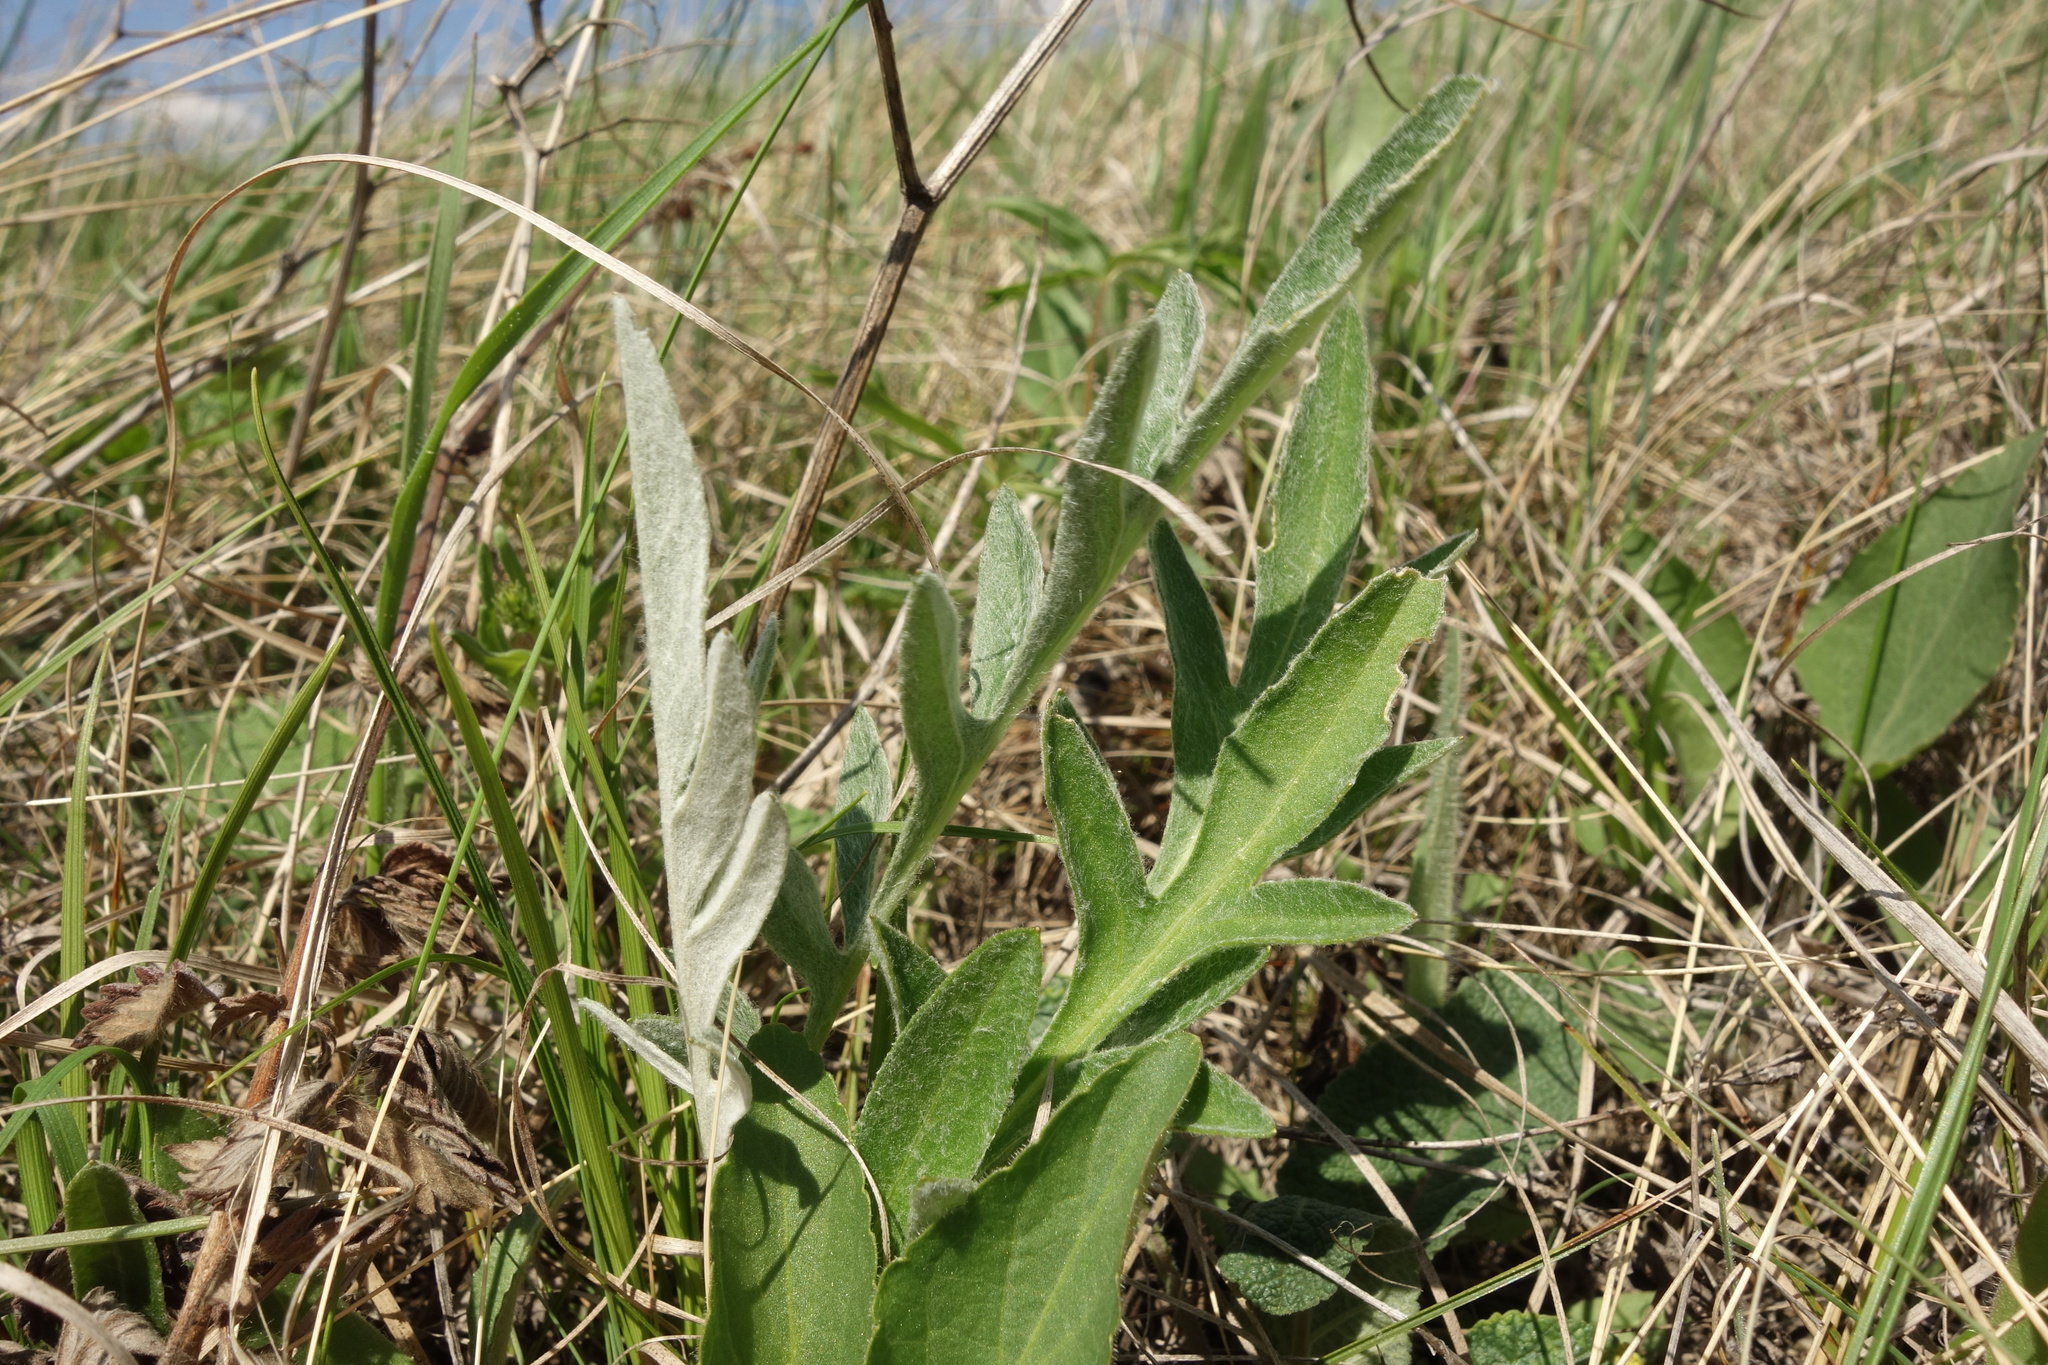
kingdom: Plantae
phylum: Tracheophyta
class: Magnoliopsida
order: Asterales
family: Asteraceae
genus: Psephellus
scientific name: Psephellus sumensis
